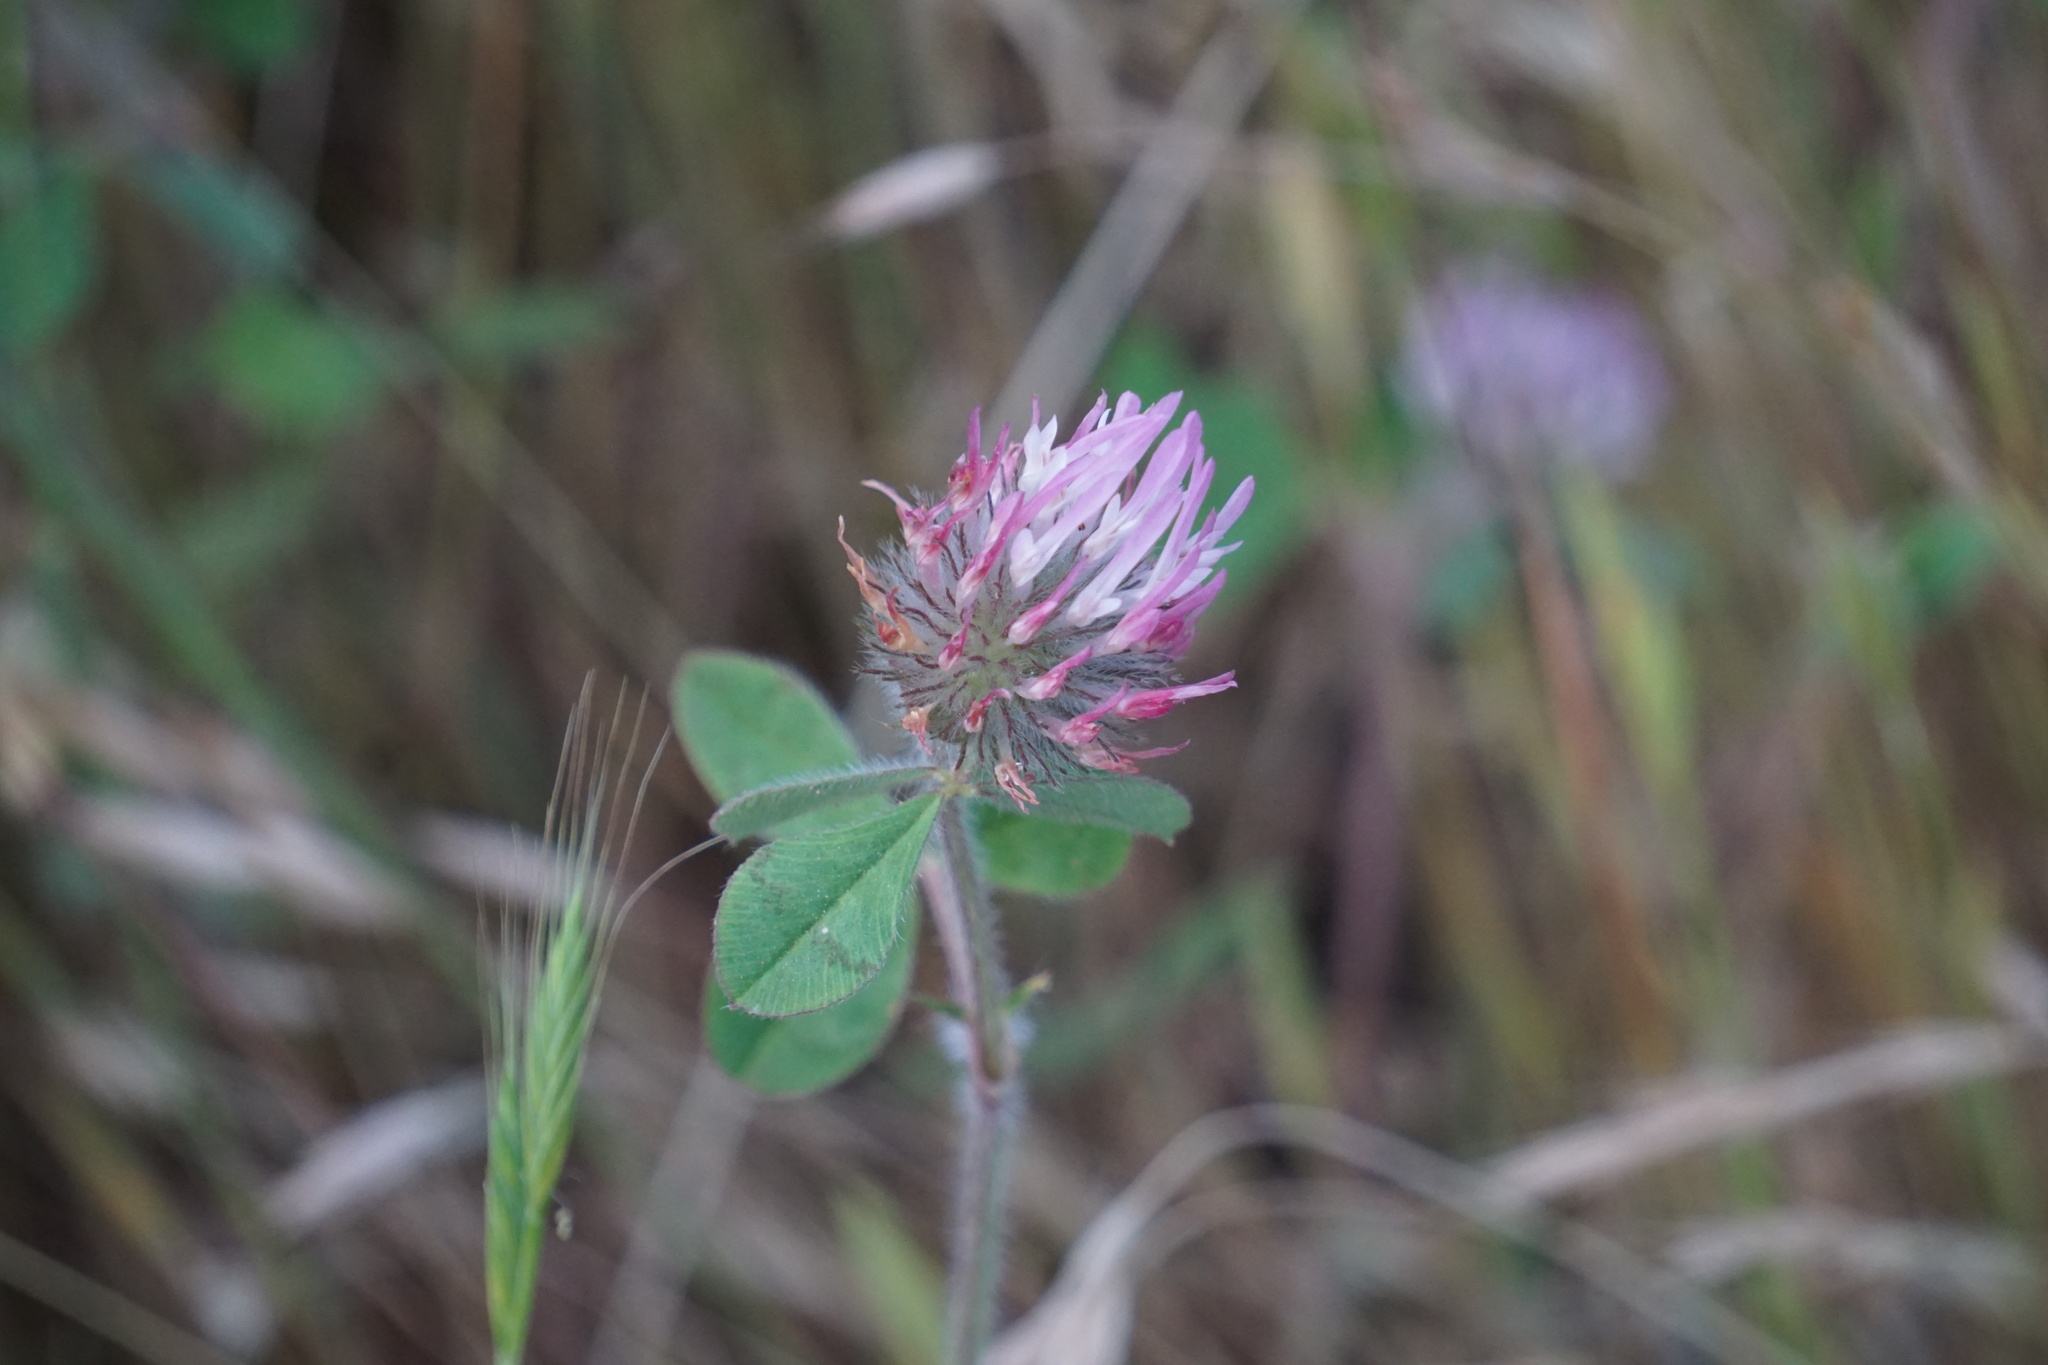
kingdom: Plantae
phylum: Tracheophyta
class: Magnoliopsida
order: Fabales
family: Fabaceae
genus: Trifolium
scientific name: Trifolium hirtum
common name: Rose clover
